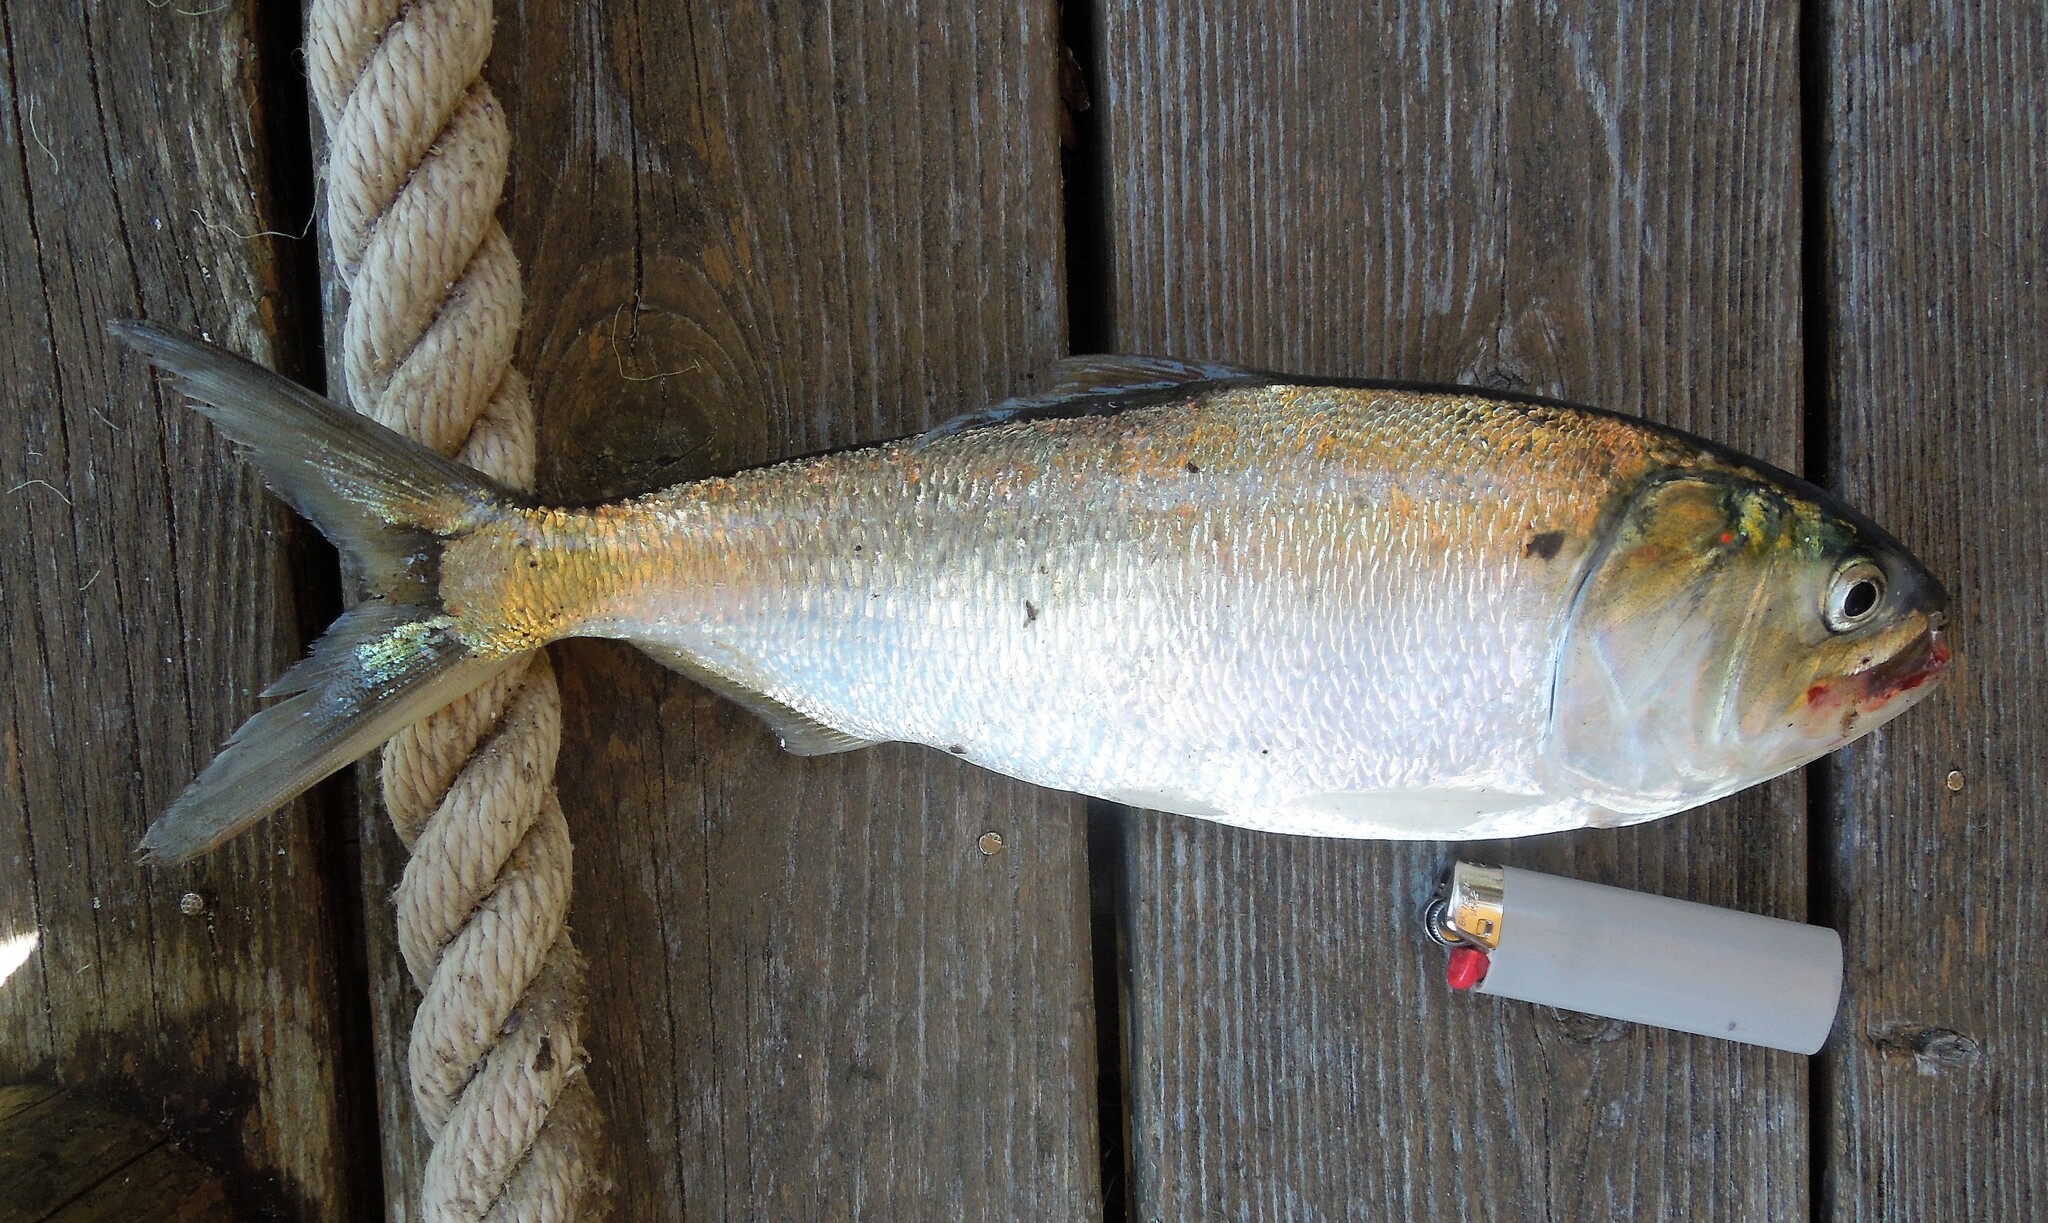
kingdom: Animalia
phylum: Chordata
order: Clupeiformes
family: Clupeidae
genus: Brevoortia
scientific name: Brevoortia tyrannus
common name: Atlantic menhaden
